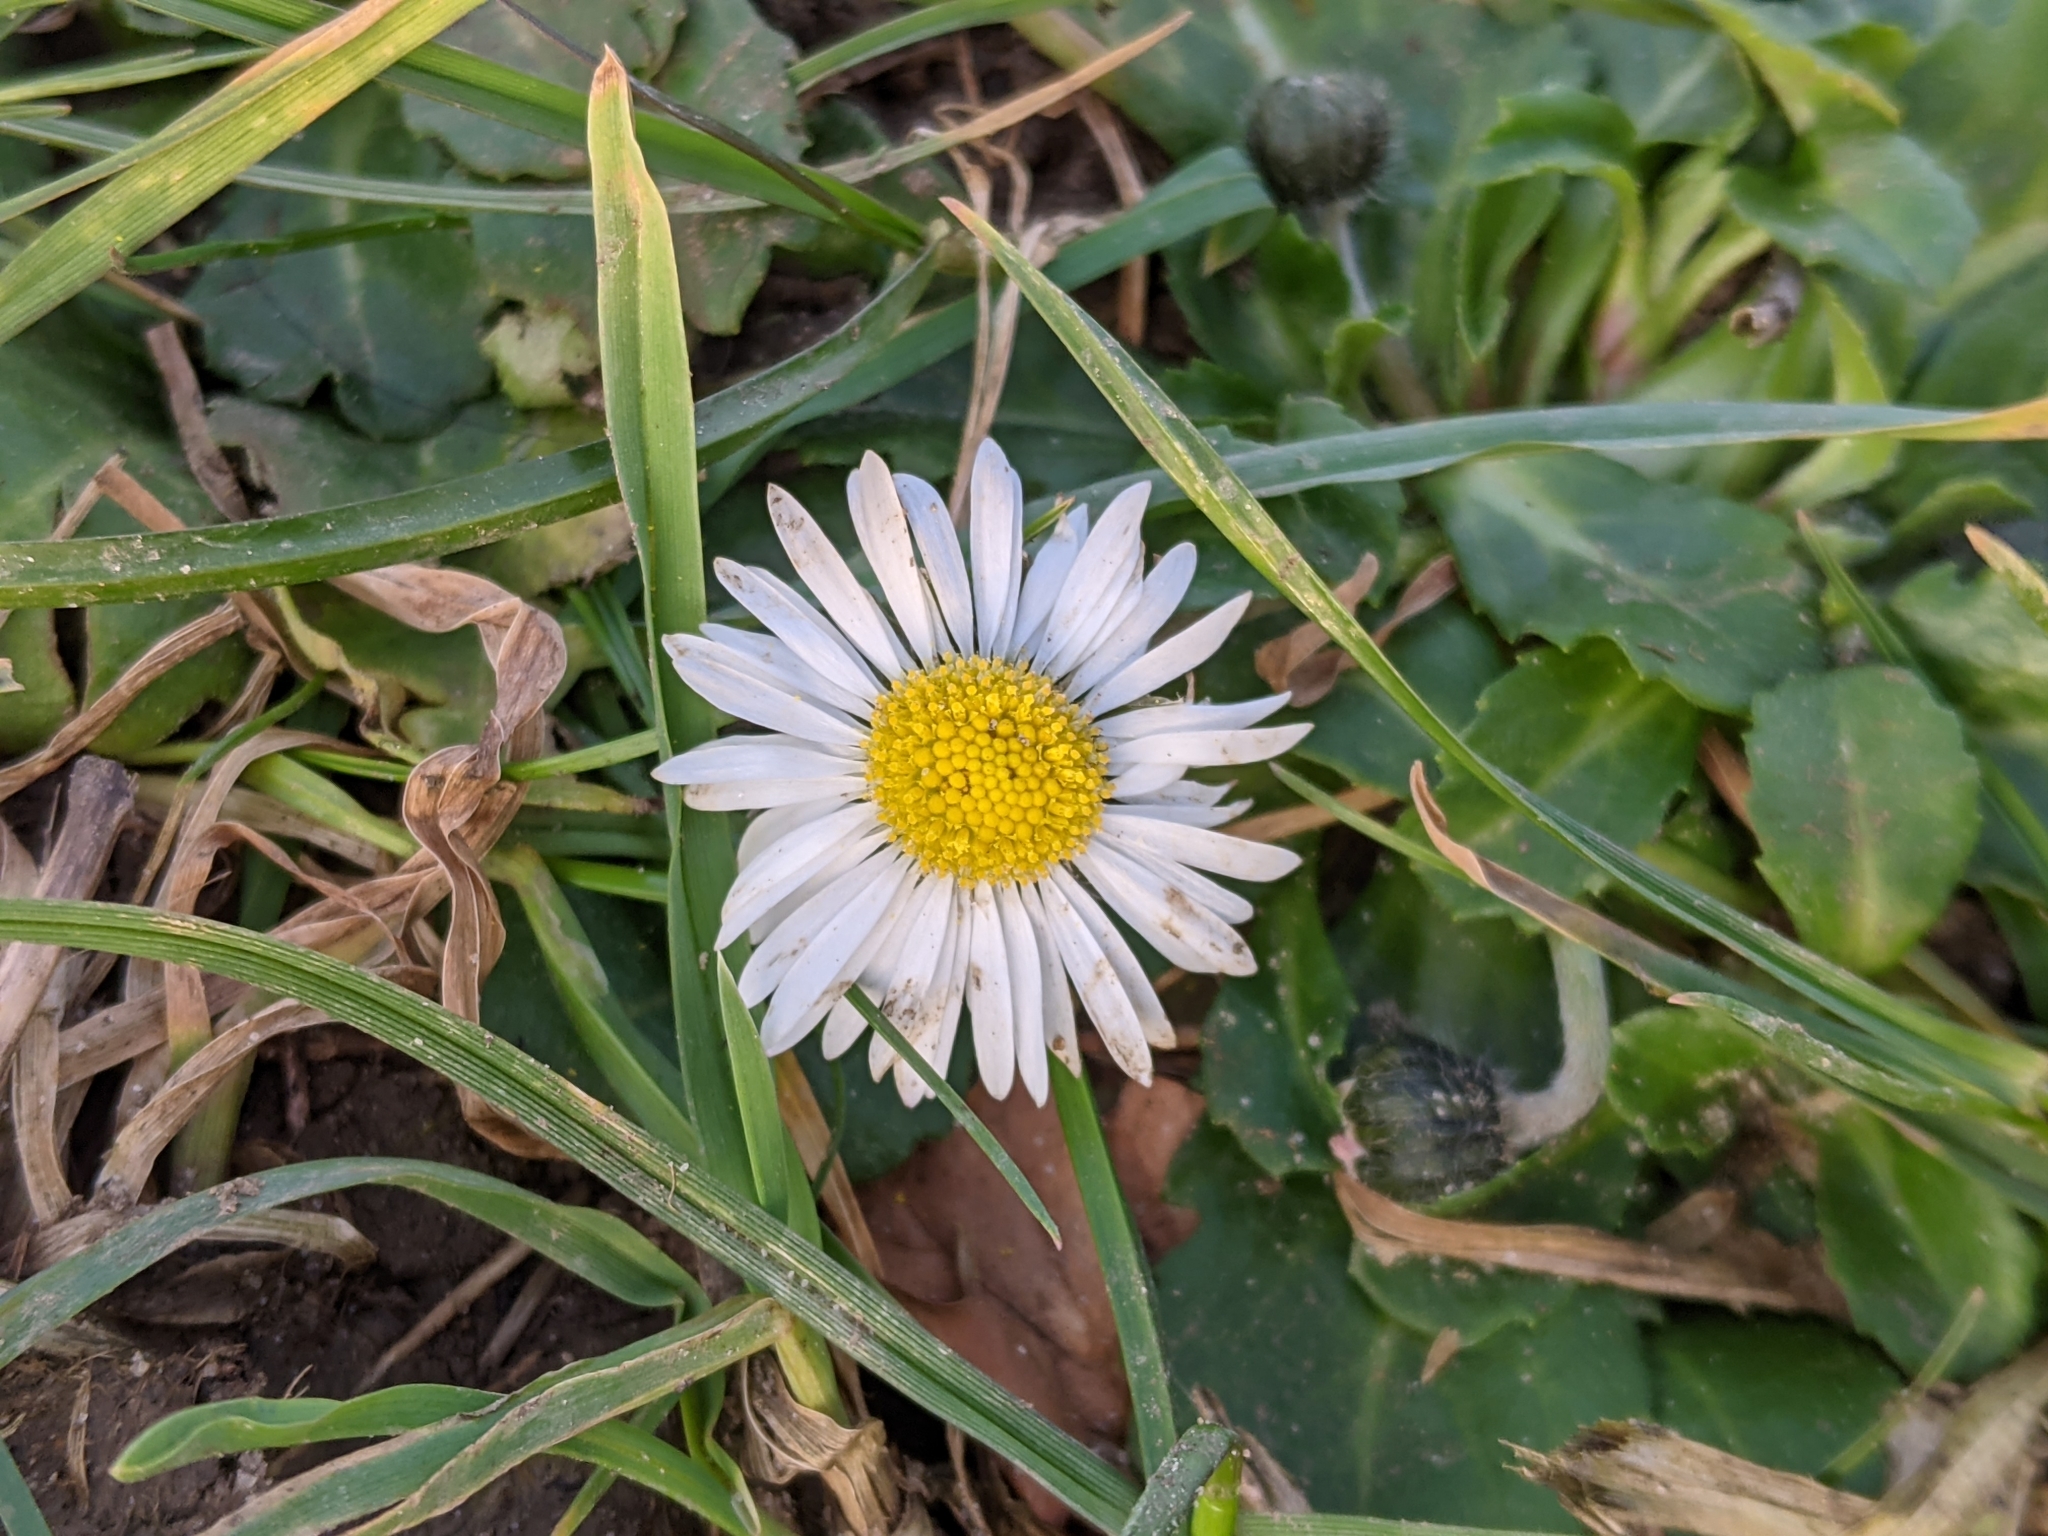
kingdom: Plantae
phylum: Tracheophyta
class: Magnoliopsida
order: Asterales
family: Asteraceae
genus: Bellis
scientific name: Bellis perennis
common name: Lawndaisy
